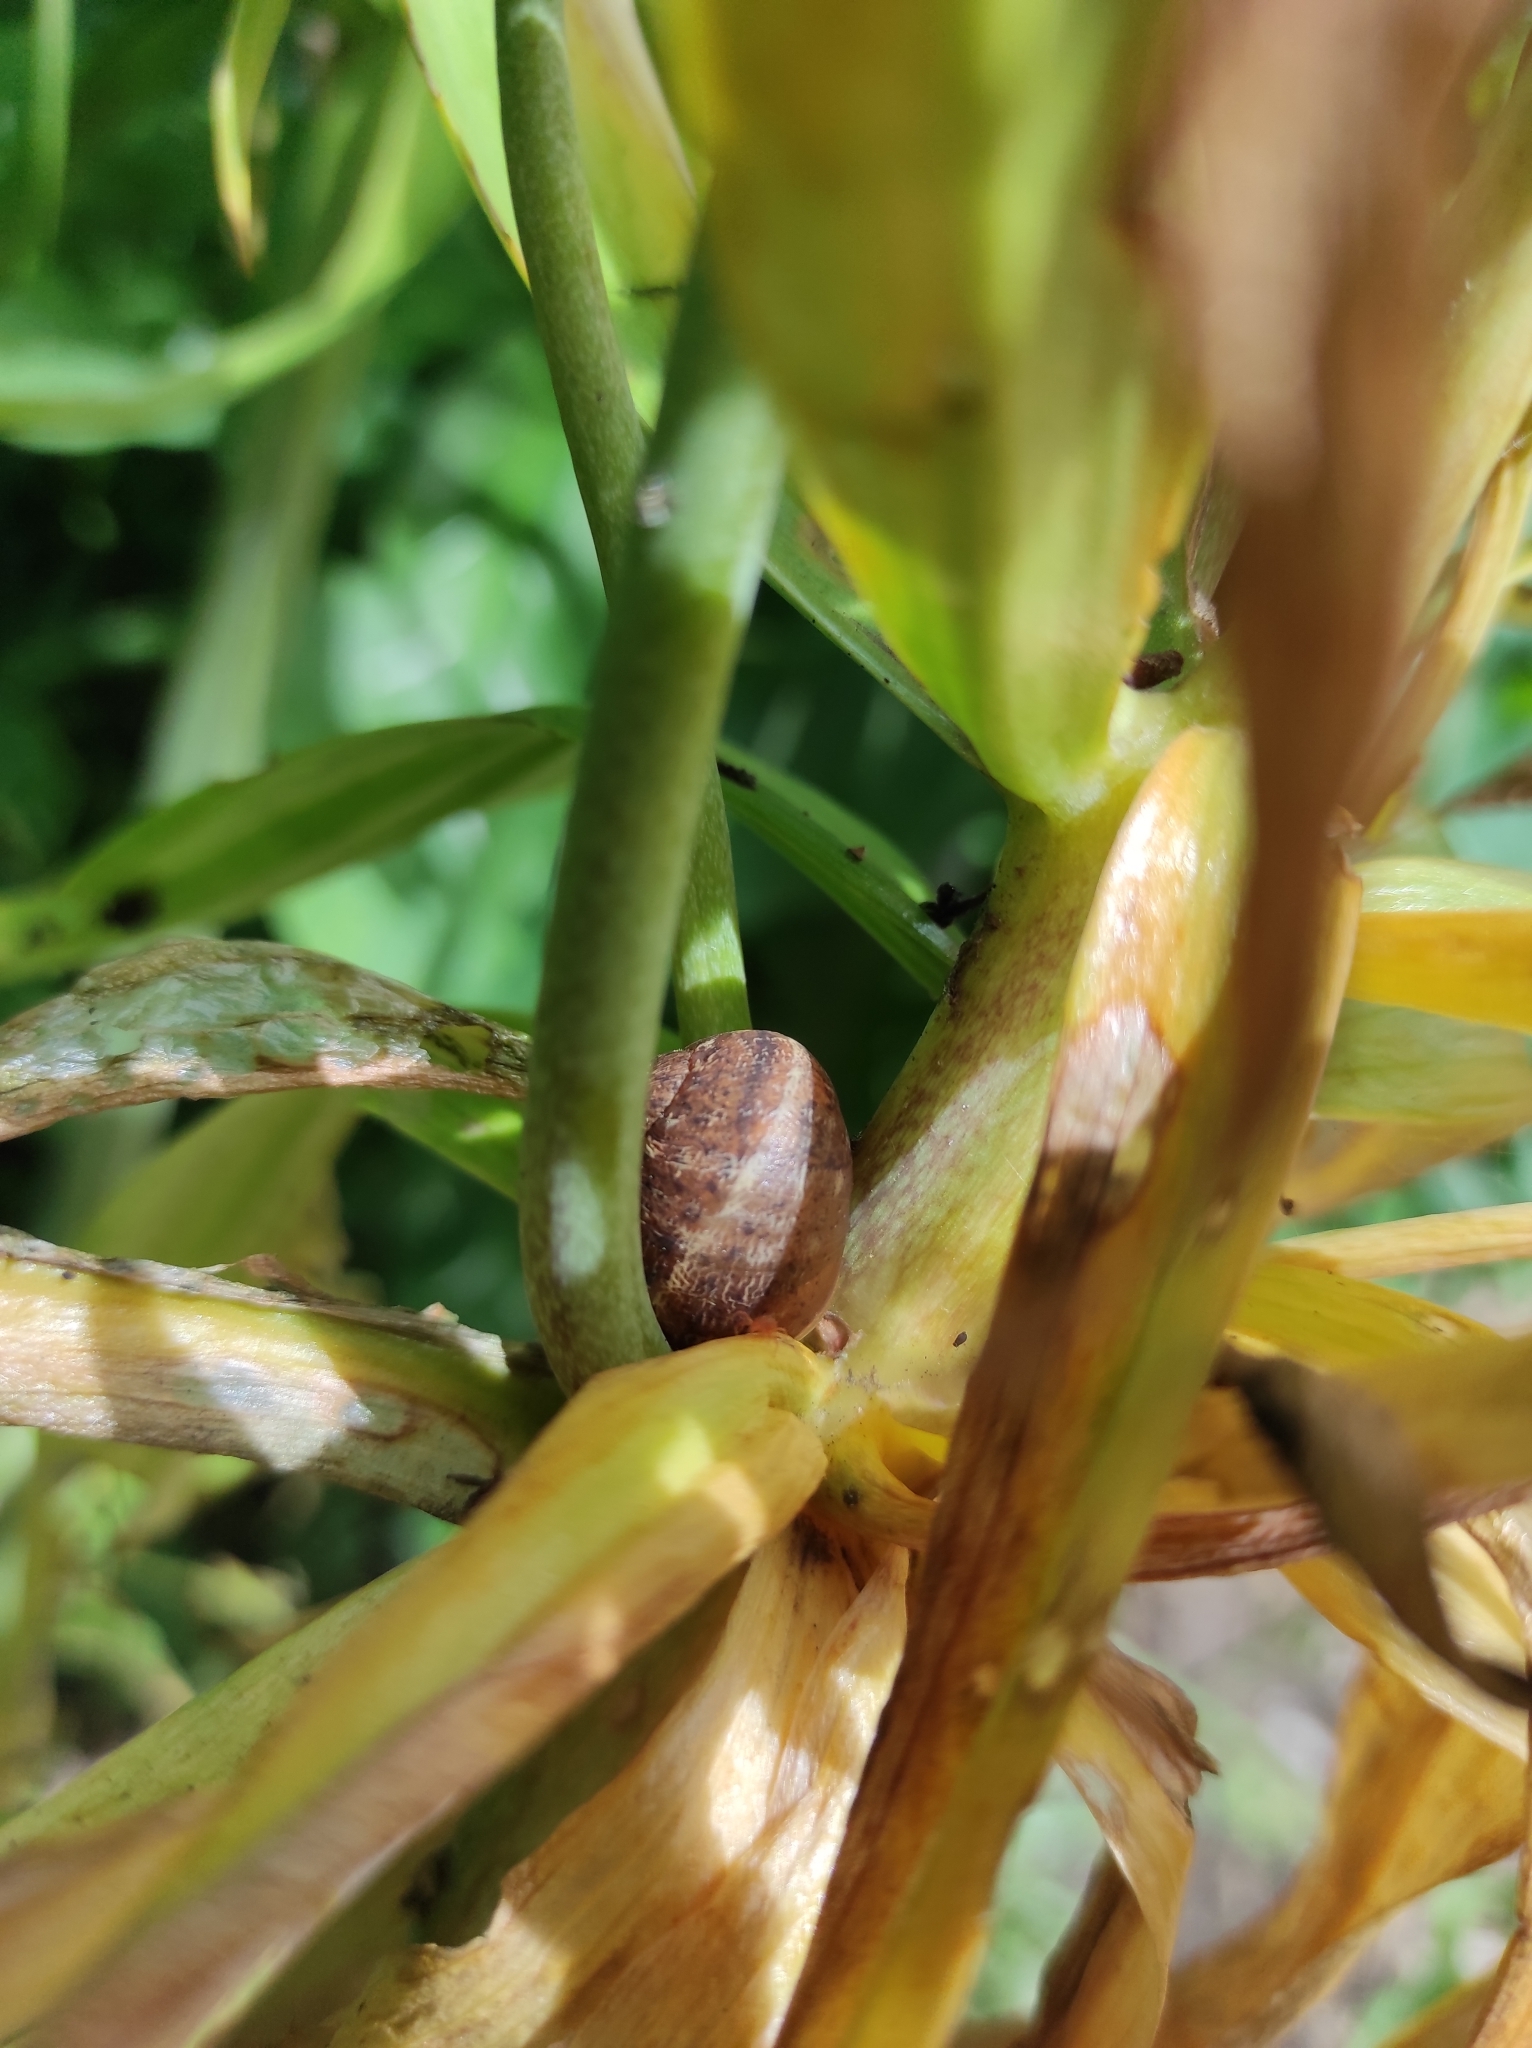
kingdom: Animalia
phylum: Mollusca
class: Gastropoda
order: Stylommatophora
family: Helicidae
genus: Cornu
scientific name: Cornu aspersum
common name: Brown garden snail
